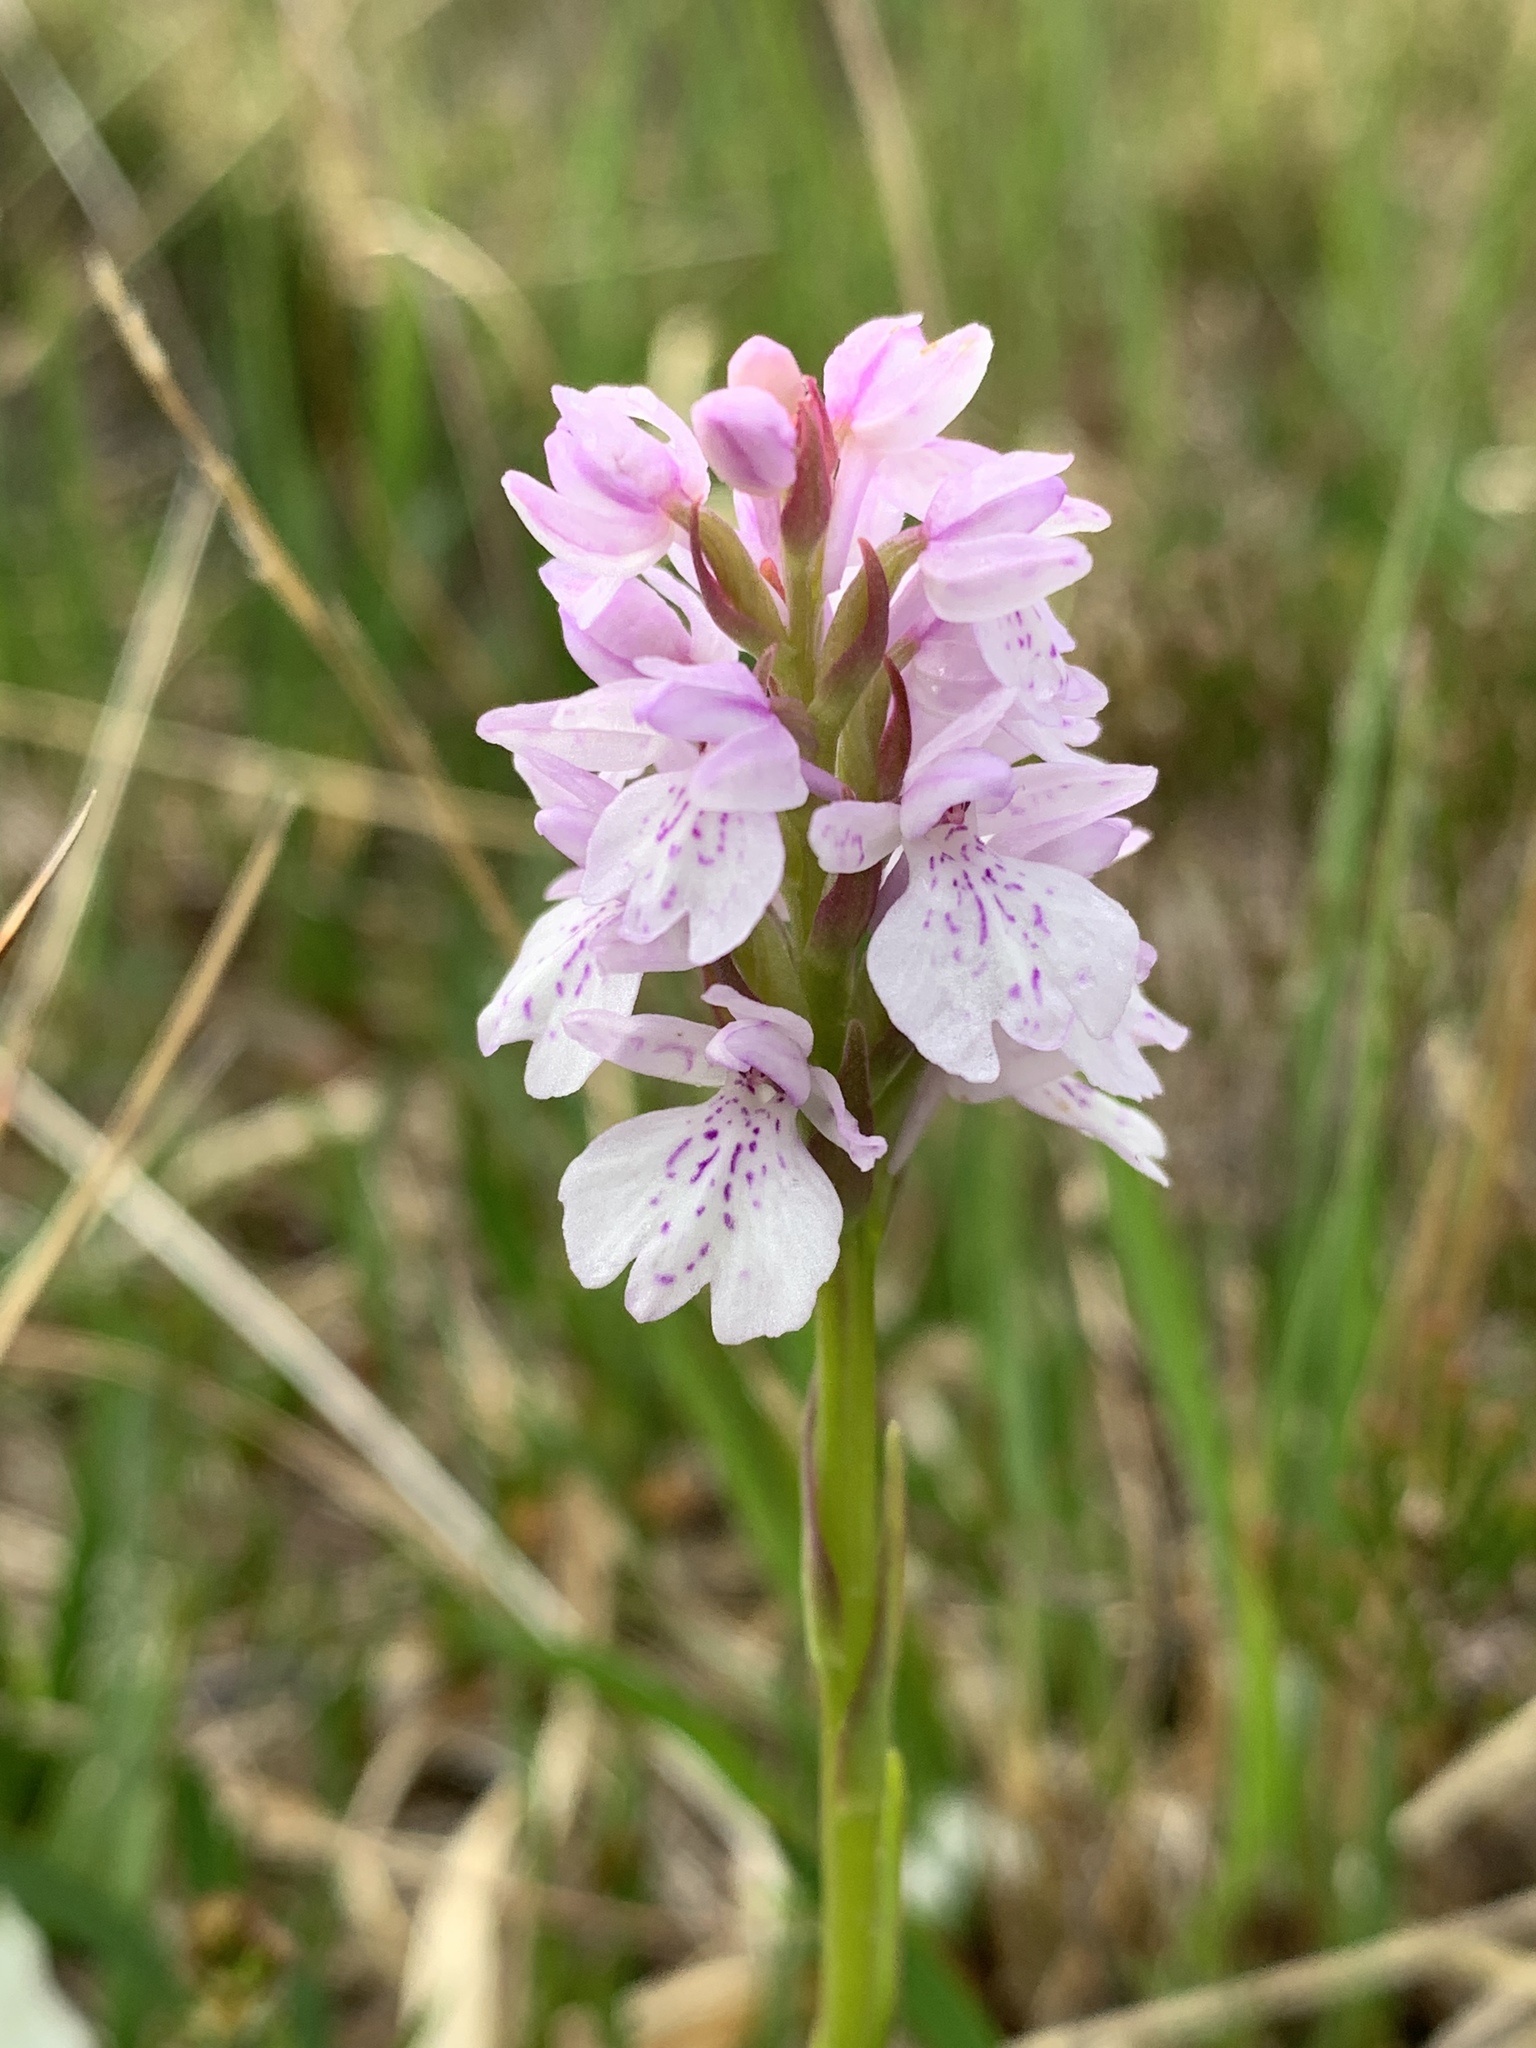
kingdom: Plantae
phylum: Tracheophyta
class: Liliopsida
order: Asparagales
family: Orchidaceae
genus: Dactylorhiza
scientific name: Dactylorhiza maculata
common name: Heath spotted-orchid
